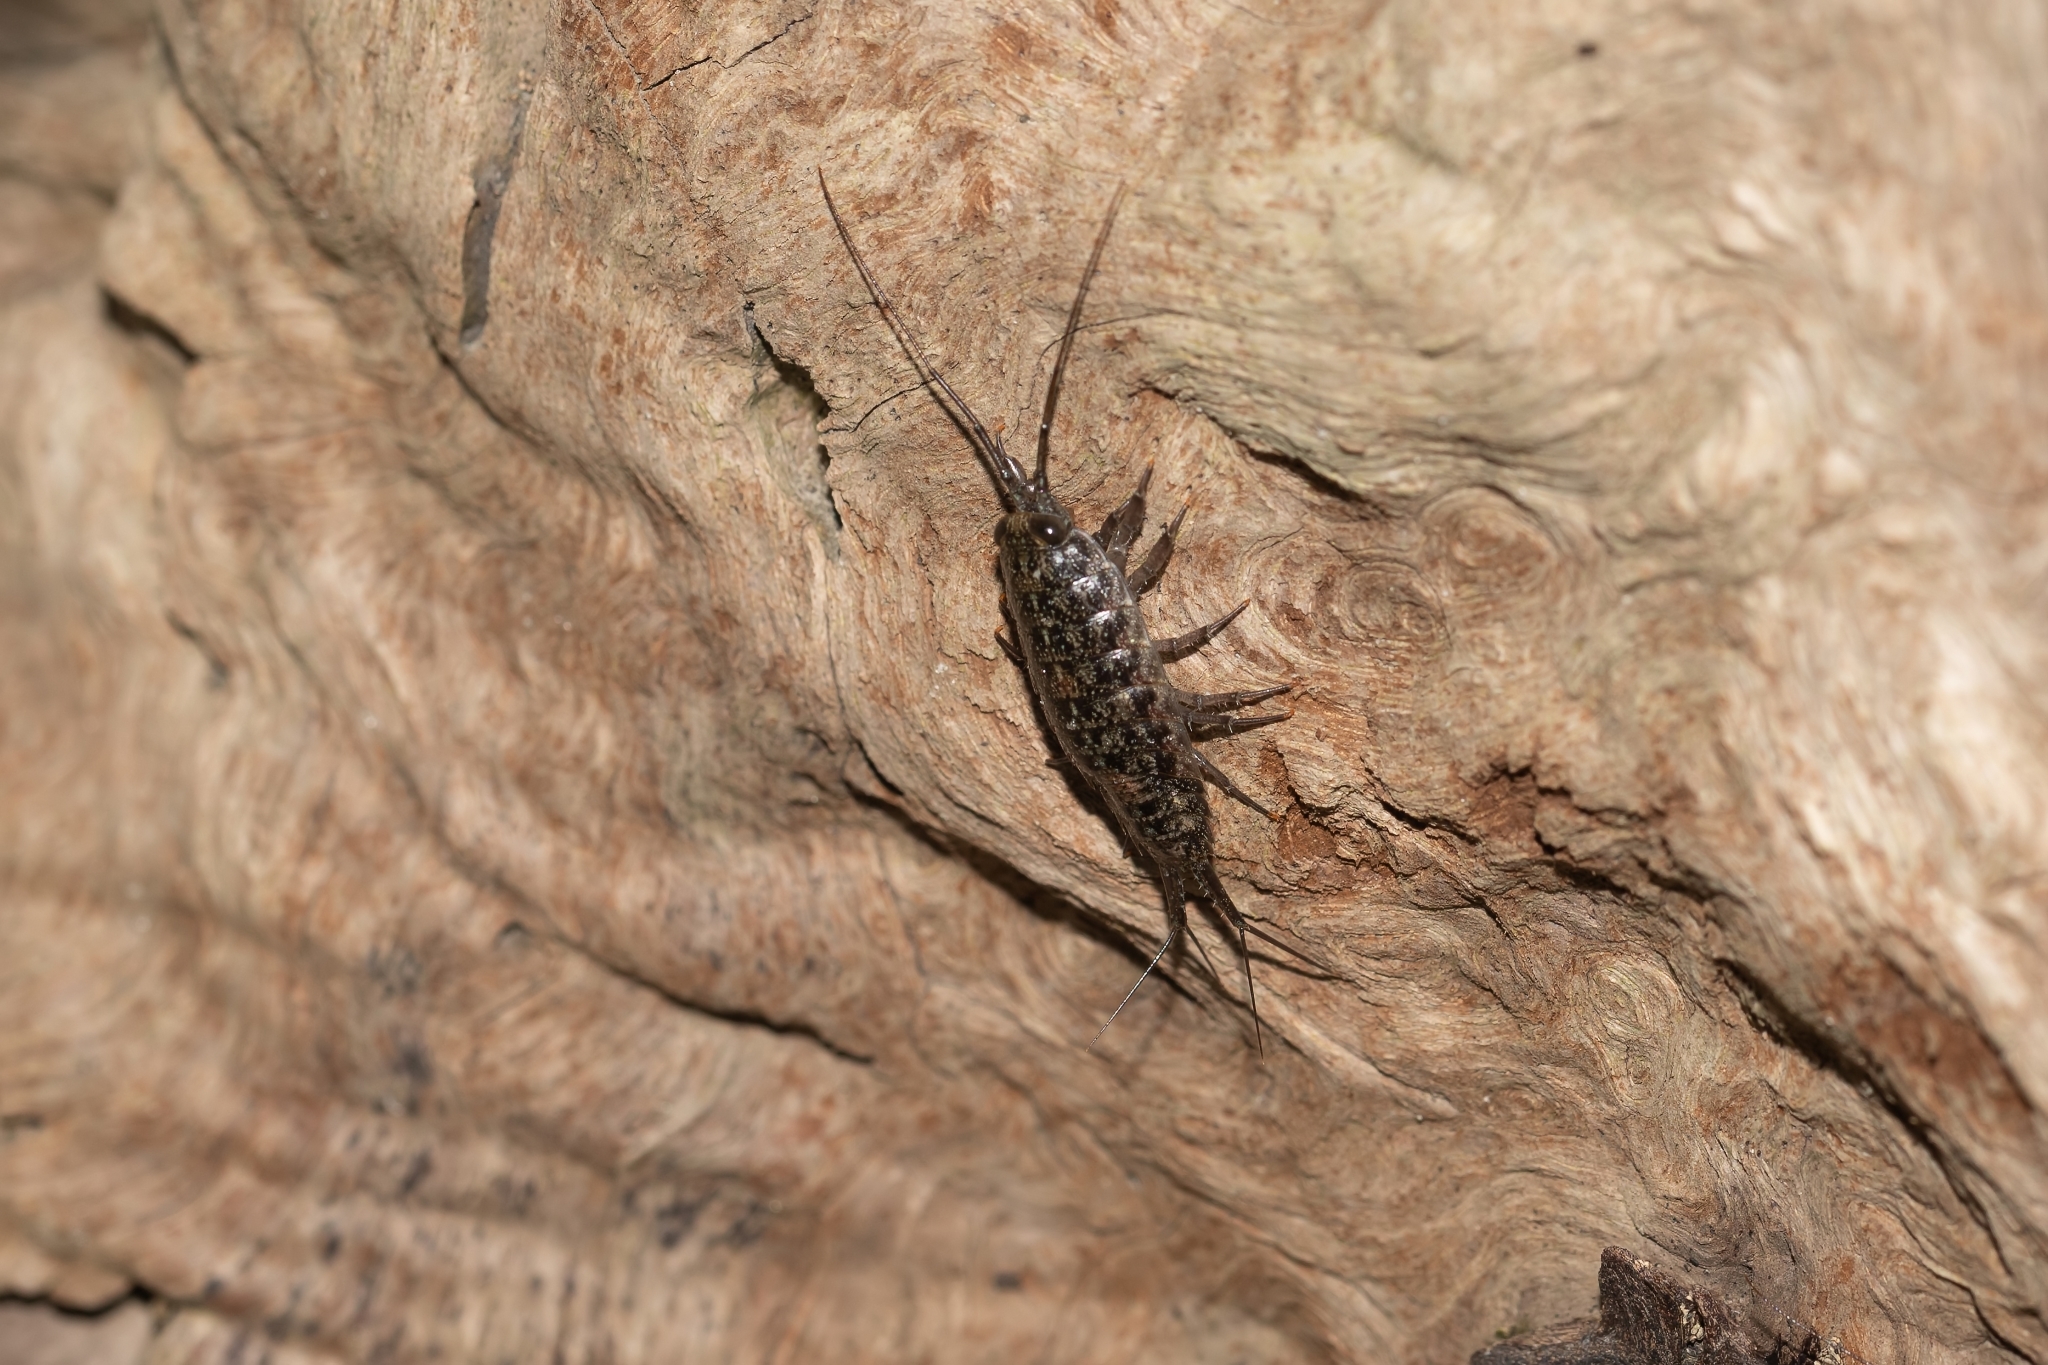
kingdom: Animalia
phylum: Arthropoda
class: Malacostraca
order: Isopoda
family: Ligiidae
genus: Ligia
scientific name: Ligia exotica
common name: Wharf roach
